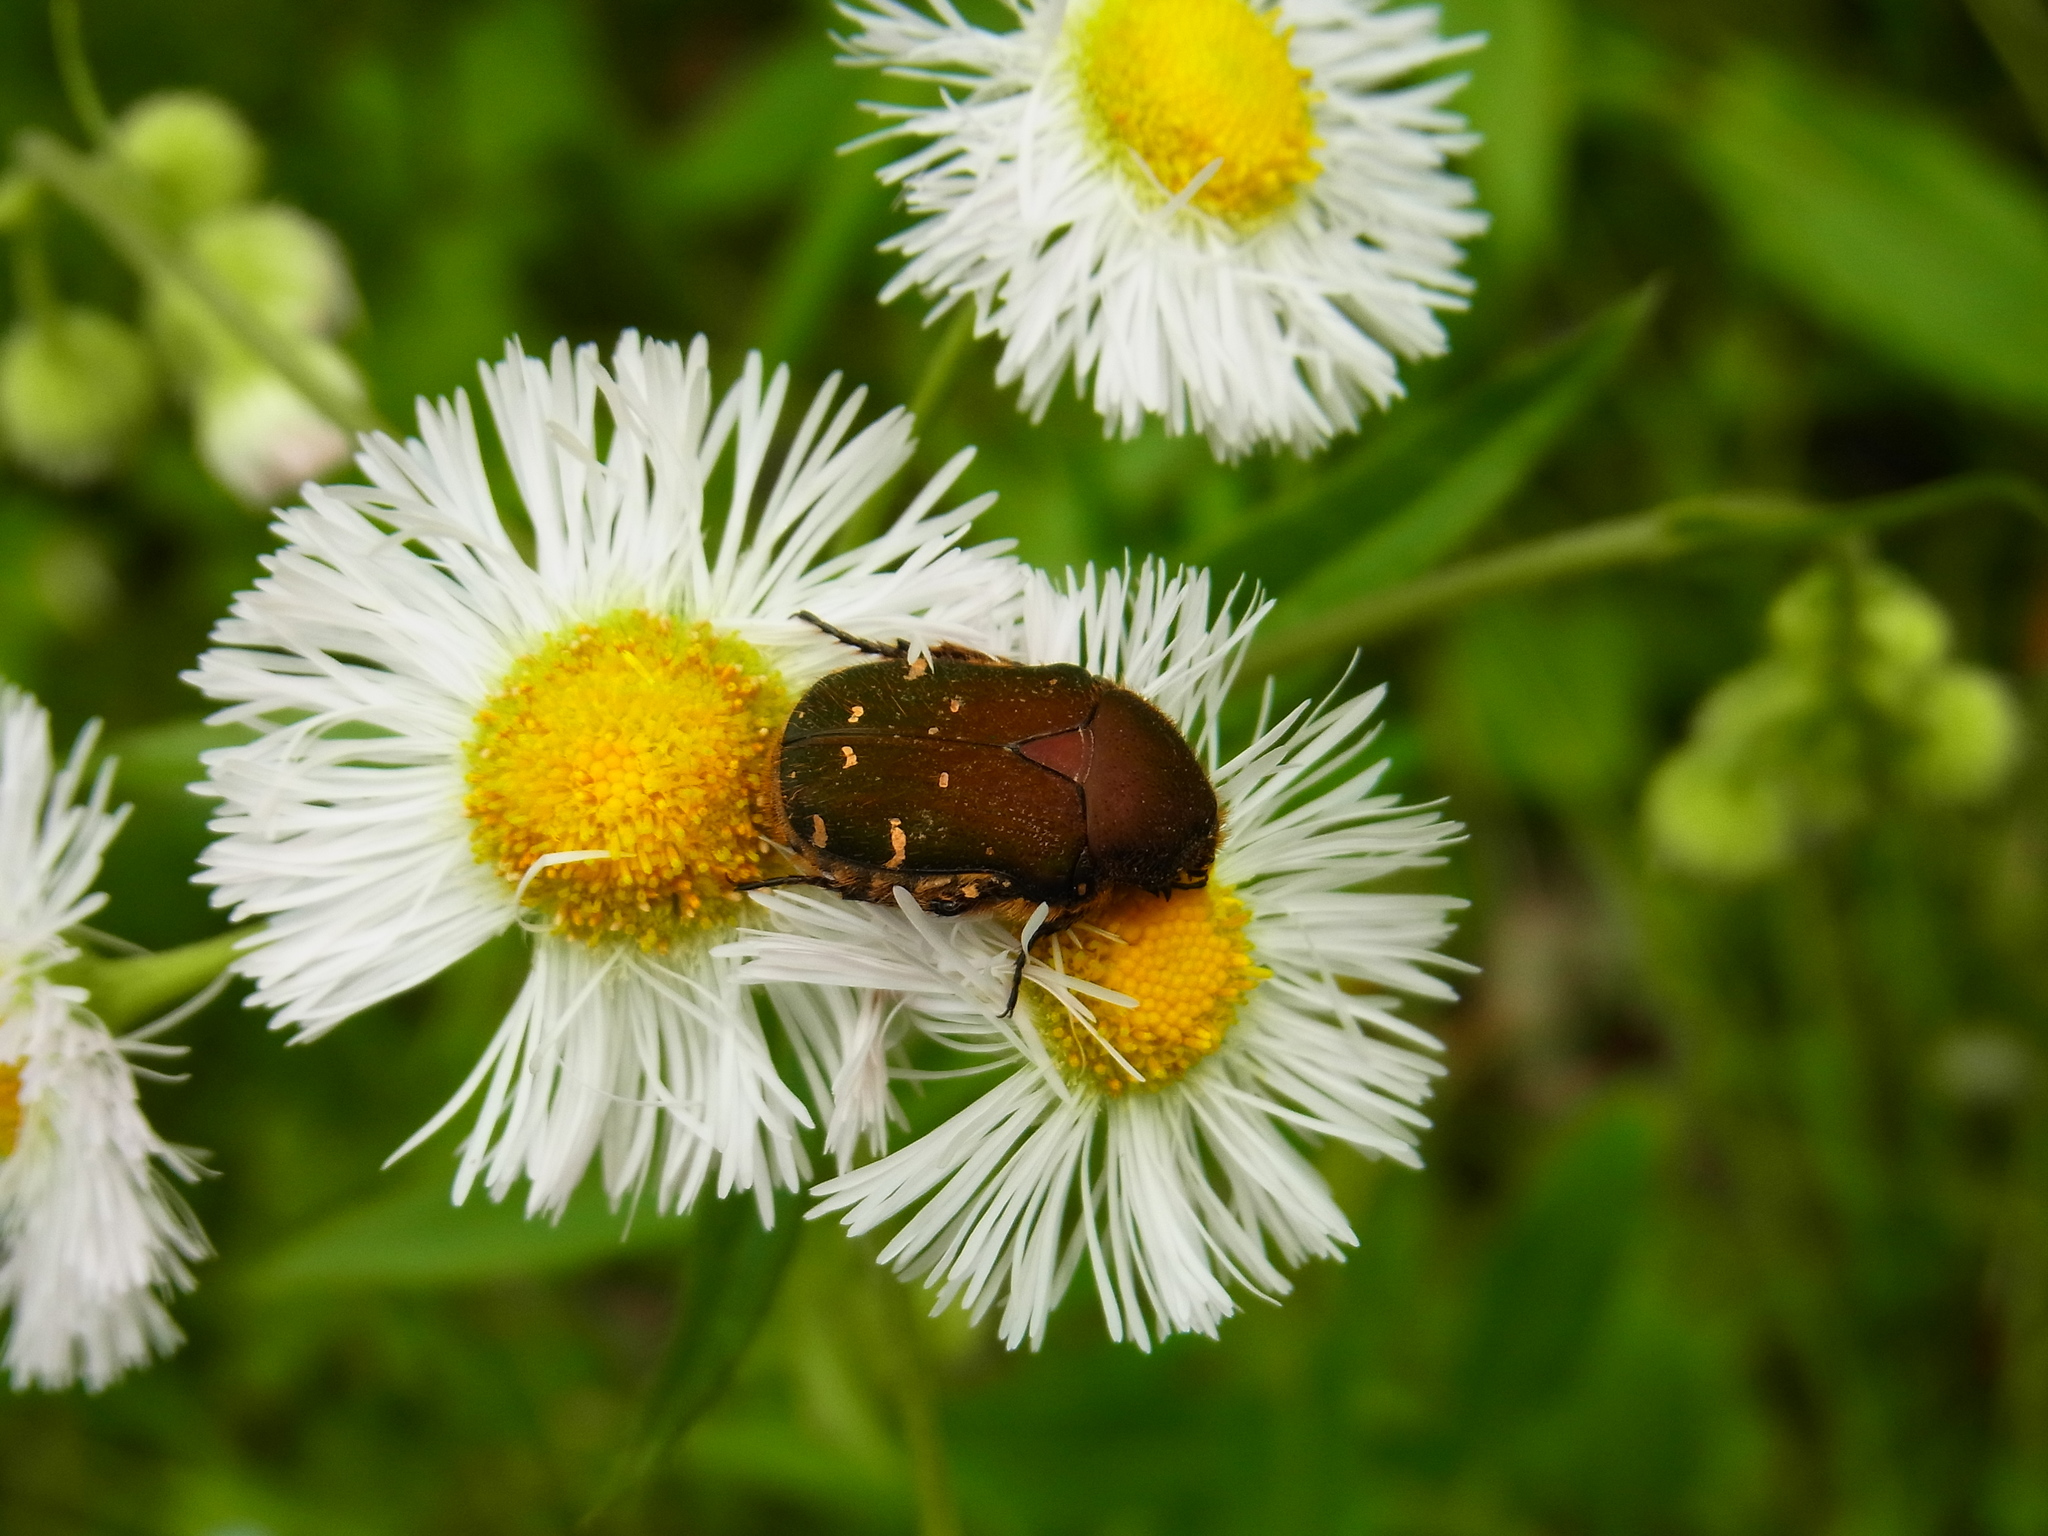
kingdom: Animalia
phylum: Arthropoda
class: Insecta
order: Coleoptera
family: Scarabaeidae
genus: Gametis
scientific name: Gametis jucunda
